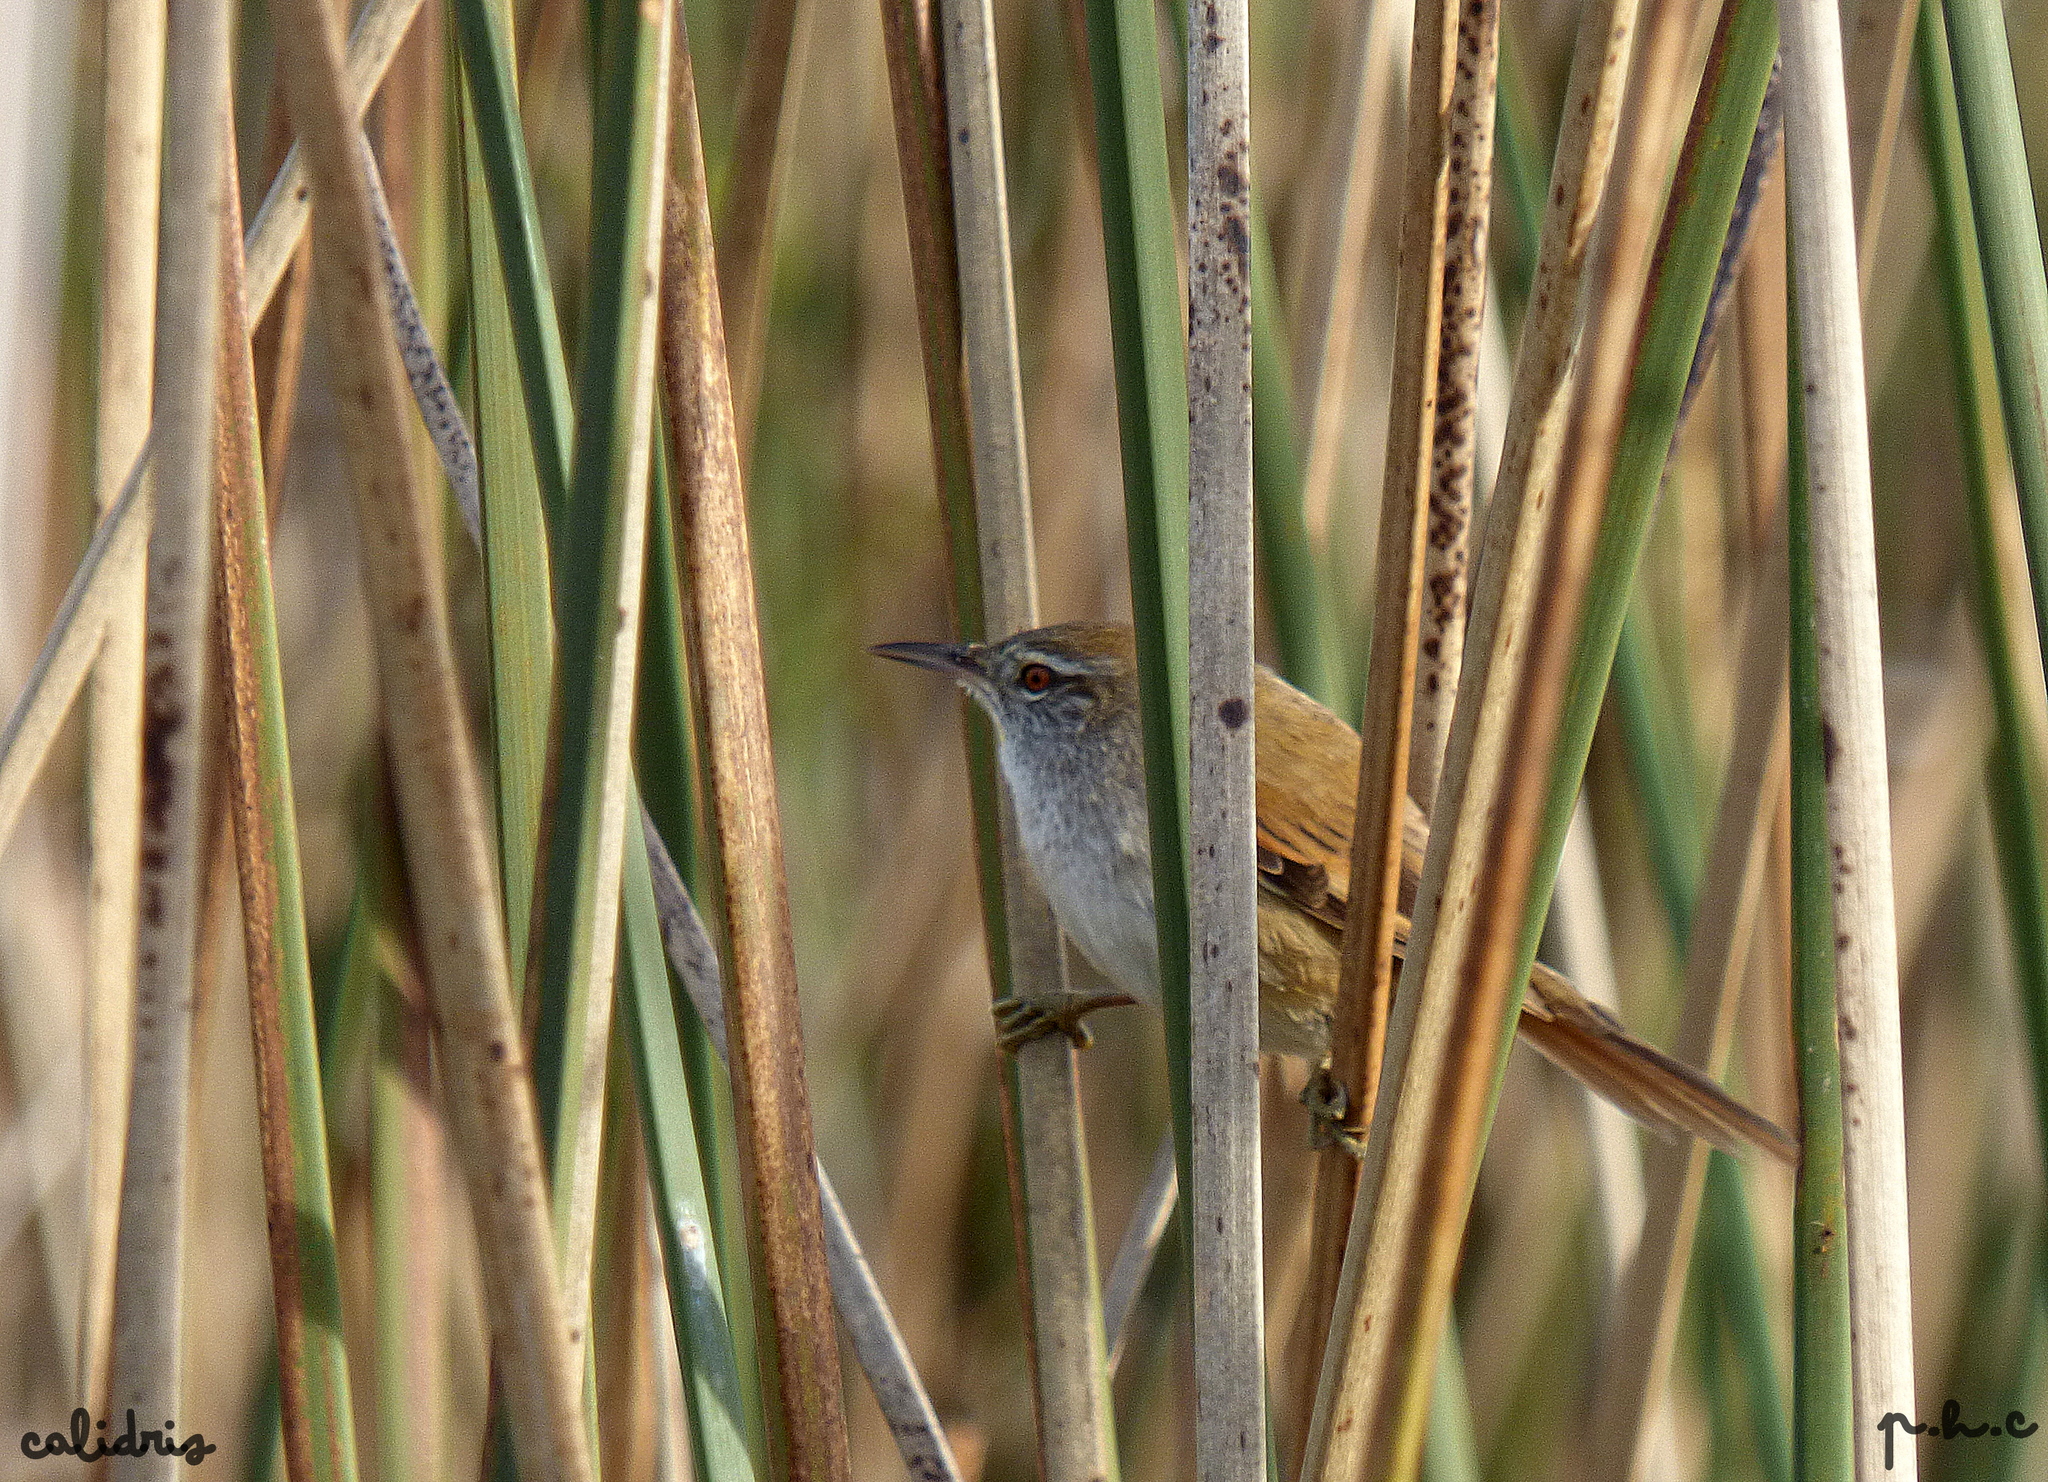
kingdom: Animalia
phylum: Chordata
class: Aves
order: Passeriformes
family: Furnariidae
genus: Cranioleuca
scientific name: Cranioleuca sulphurifera
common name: Sulphur-bearded spinetail
